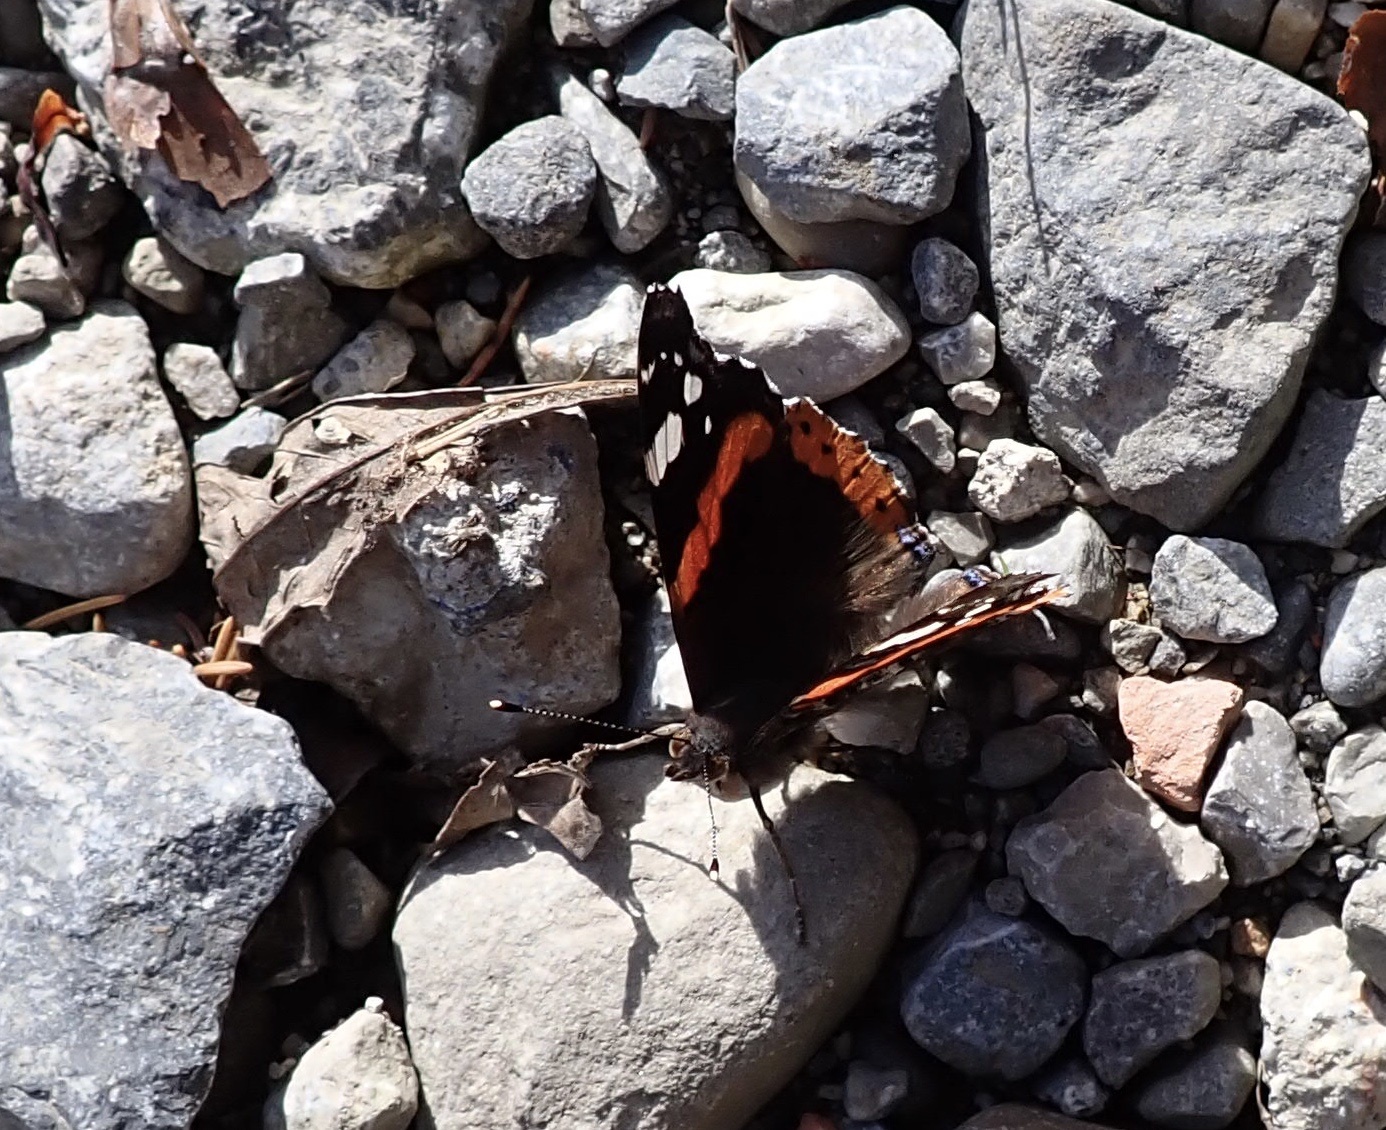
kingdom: Animalia
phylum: Arthropoda
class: Insecta
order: Lepidoptera
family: Nymphalidae
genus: Vanessa
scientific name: Vanessa atalanta
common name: Red admiral
